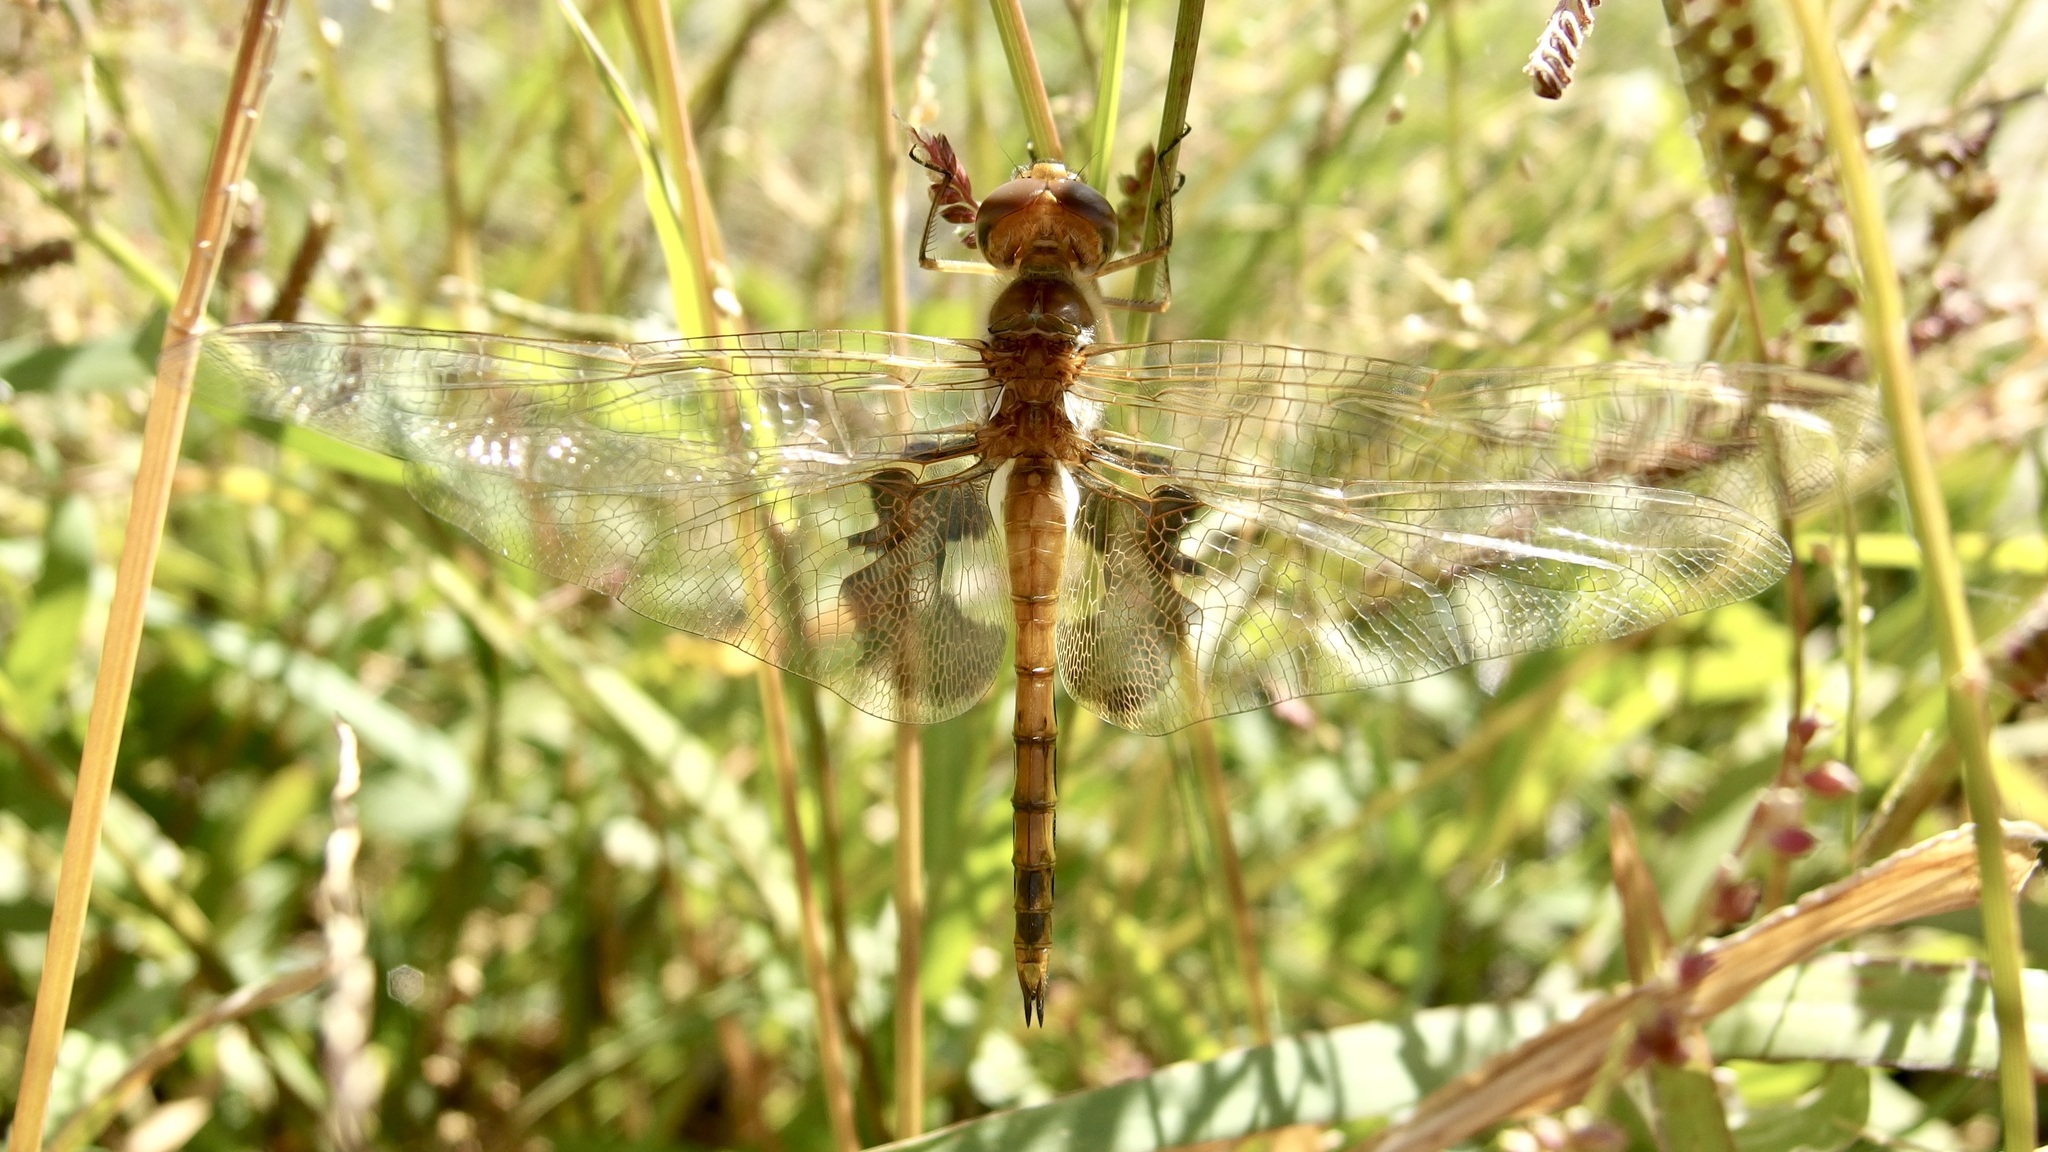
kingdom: Animalia
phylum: Arthropoda
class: Insecta
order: Odonata
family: Libellulidae
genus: Tramea
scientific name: Tramea onusta
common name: Red saddlebags
